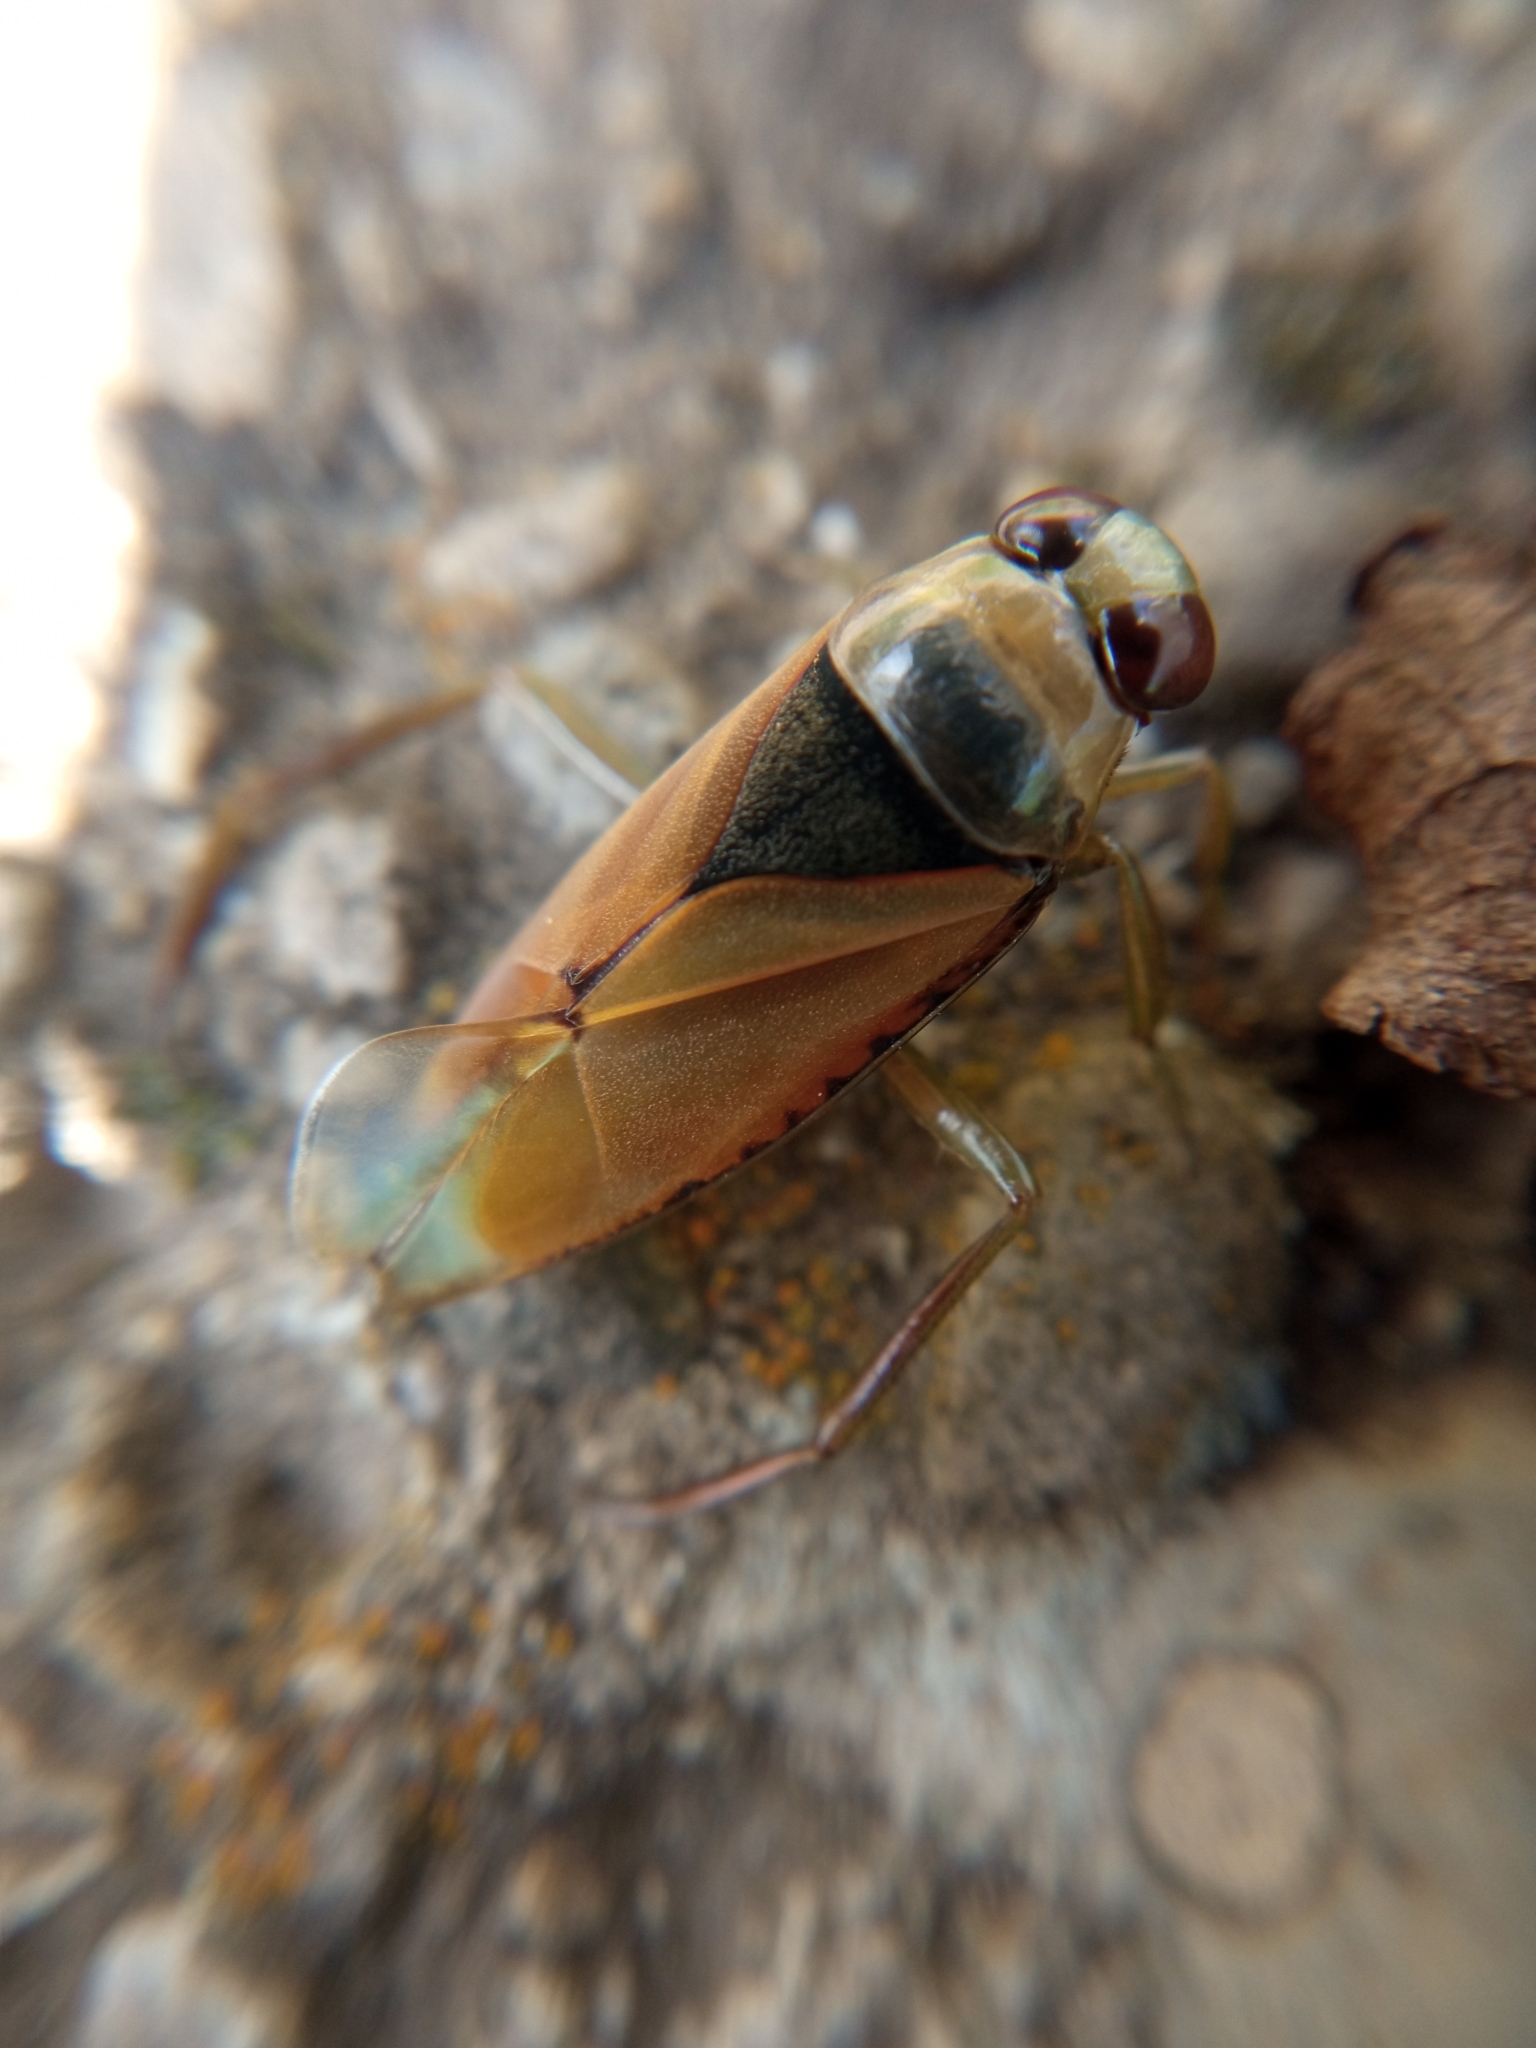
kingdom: Animalia
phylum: Arthropoda
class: Insecta
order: Hemiptera
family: Notonectidae
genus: Notonecta
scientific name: Notonecta glauca
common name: Common water-boatman
